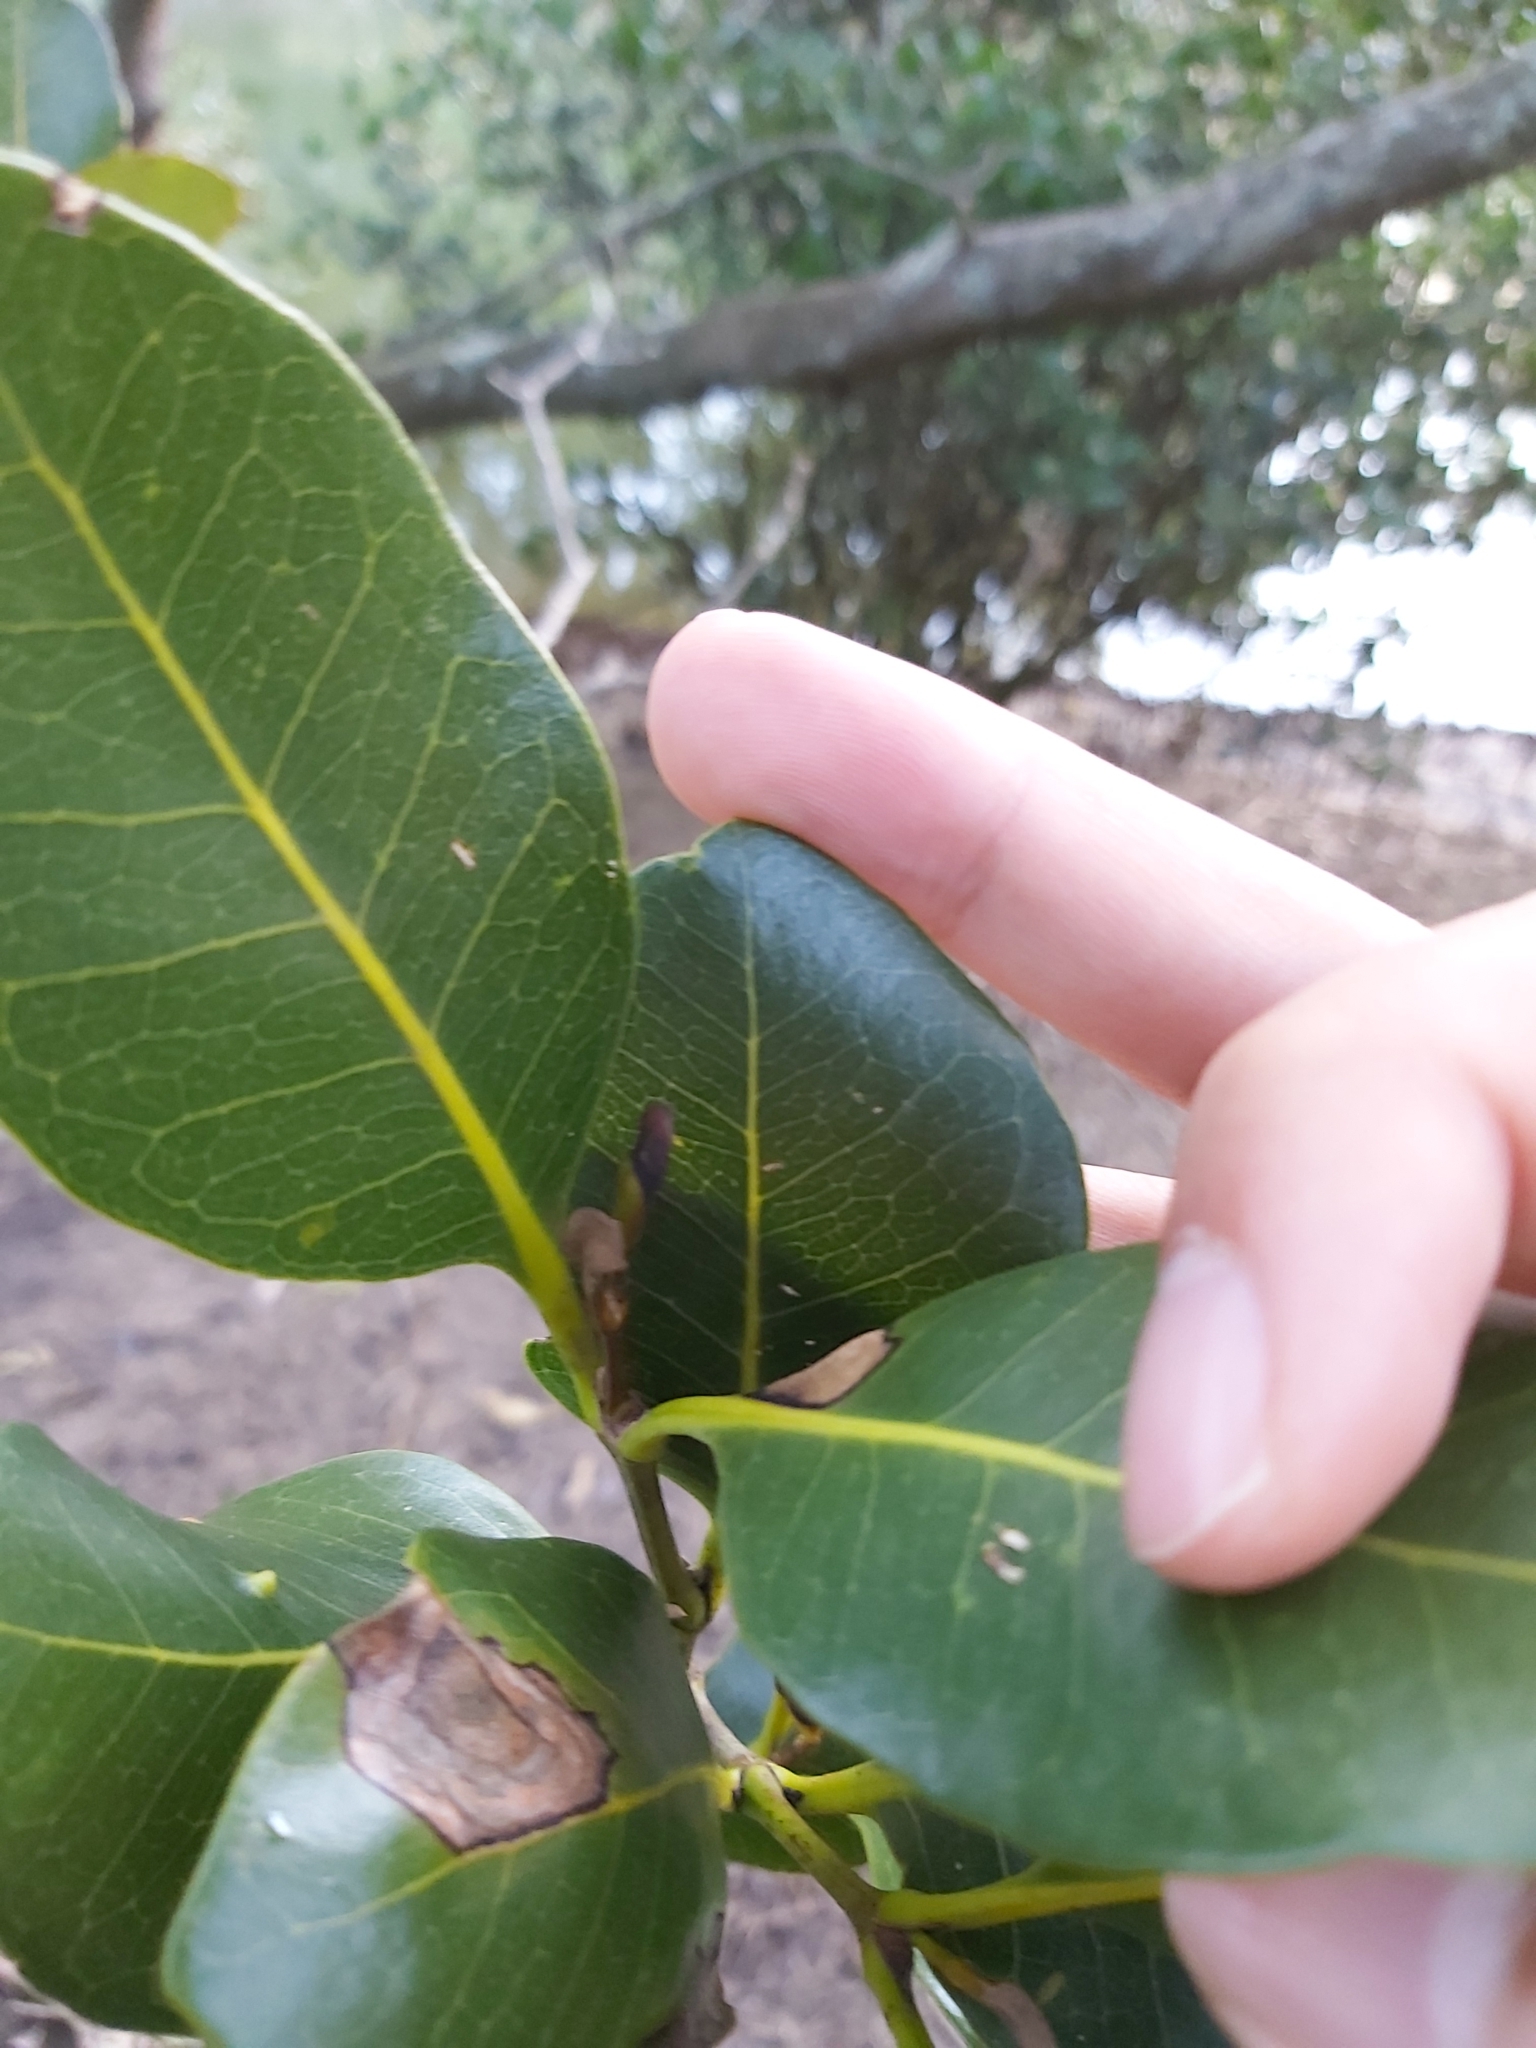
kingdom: Plantae
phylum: Tracheophyta
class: Magnoliopsida
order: Lamiales
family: Acanthaceae
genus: Avicennia
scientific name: Avicennia marina
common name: Gray mangrove
